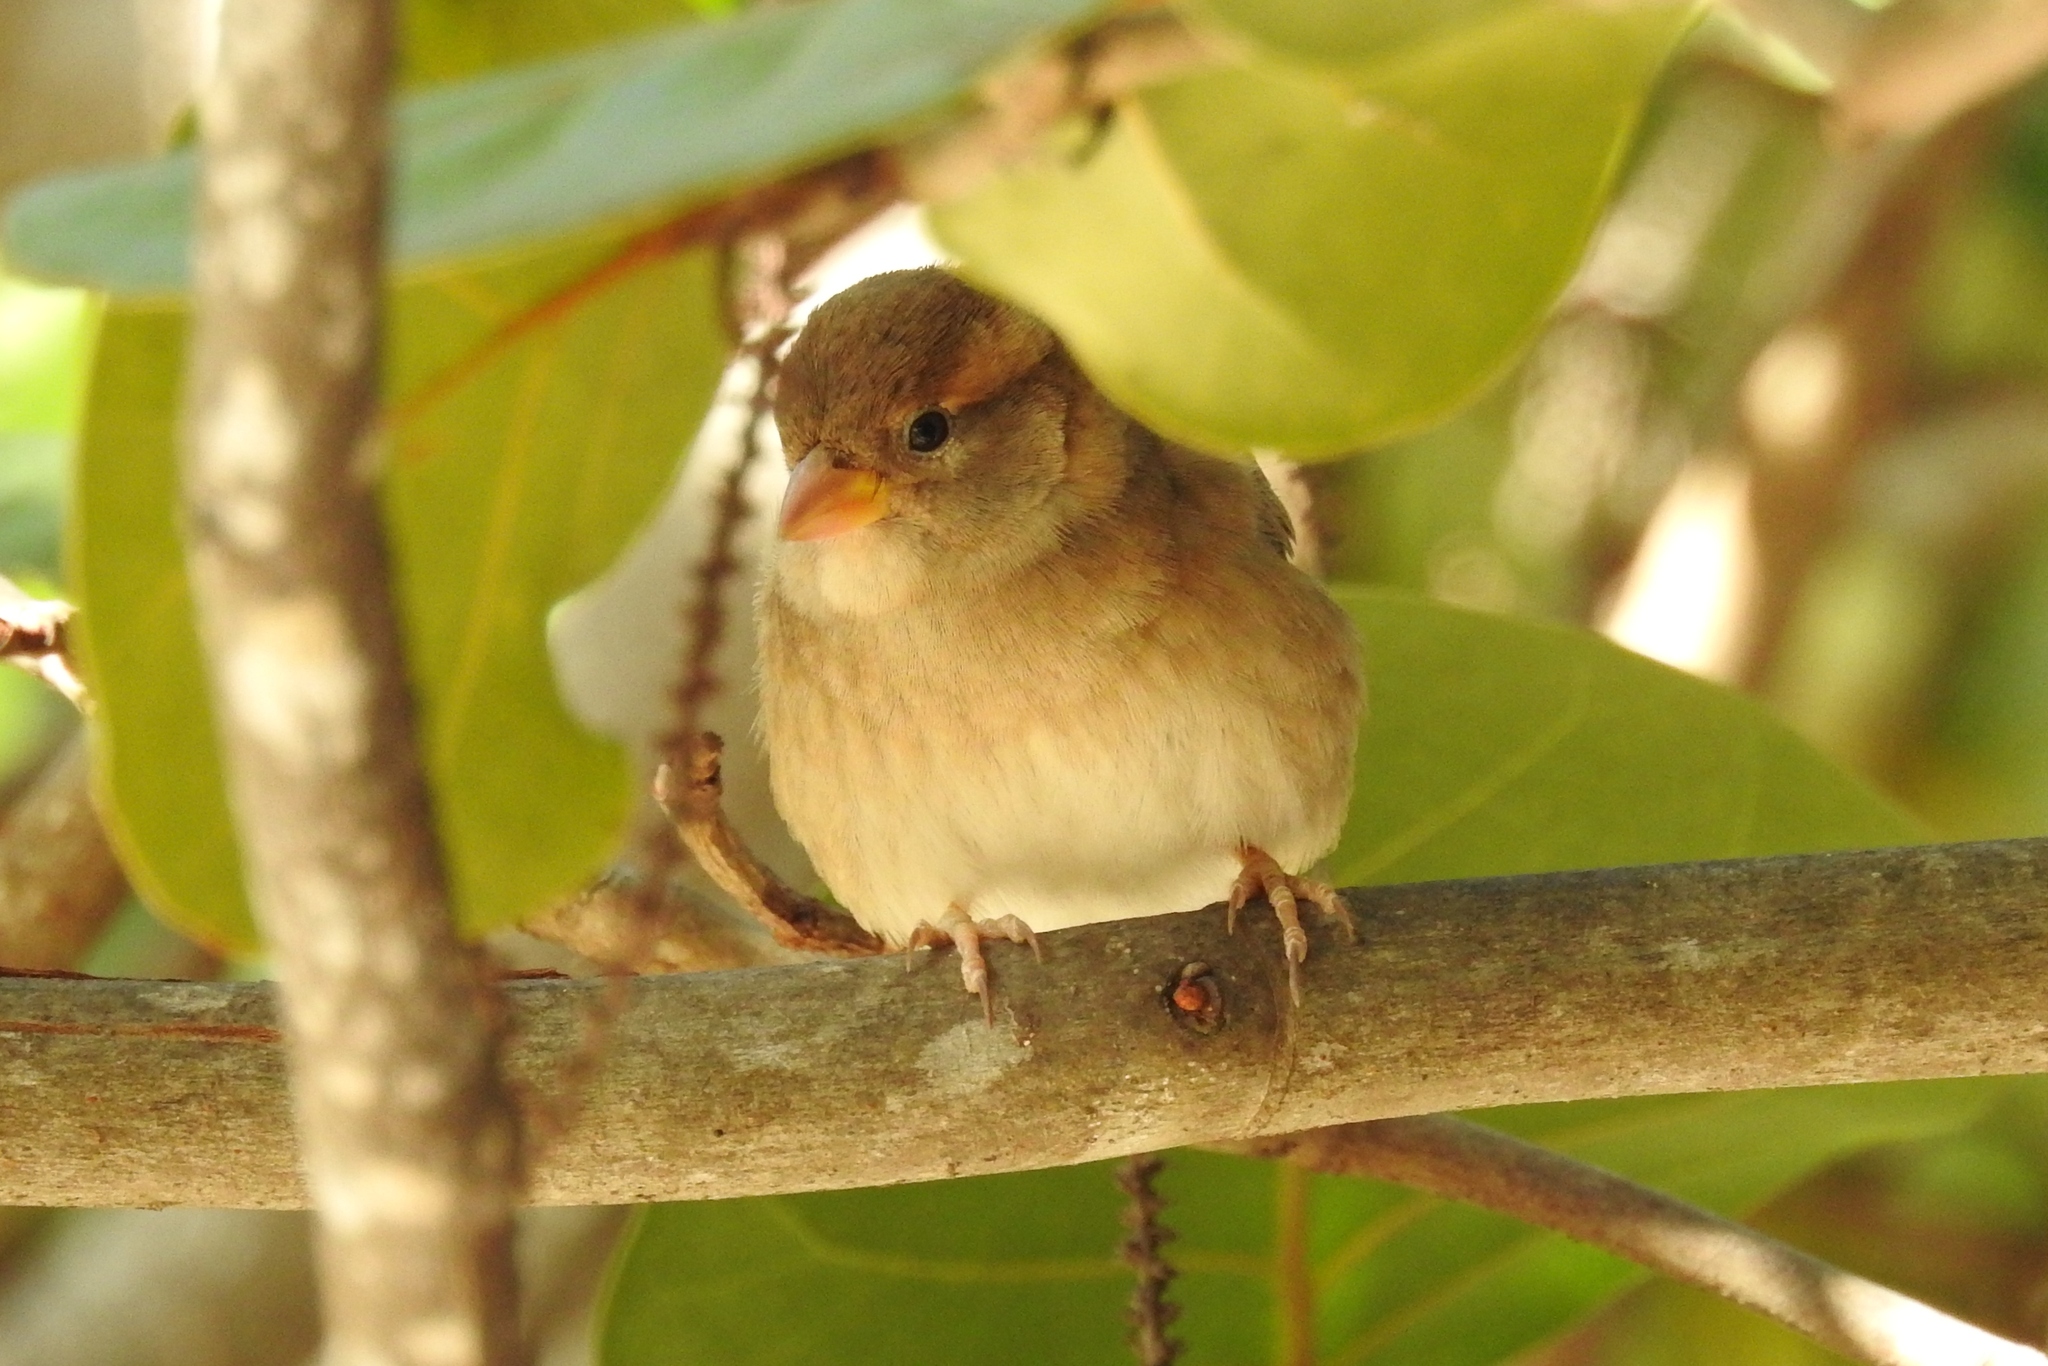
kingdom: Animalia
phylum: Chordata
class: Aves
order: Passeriformes
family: Passeridae
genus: Passer
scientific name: Passer domesticus
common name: House sparrow
